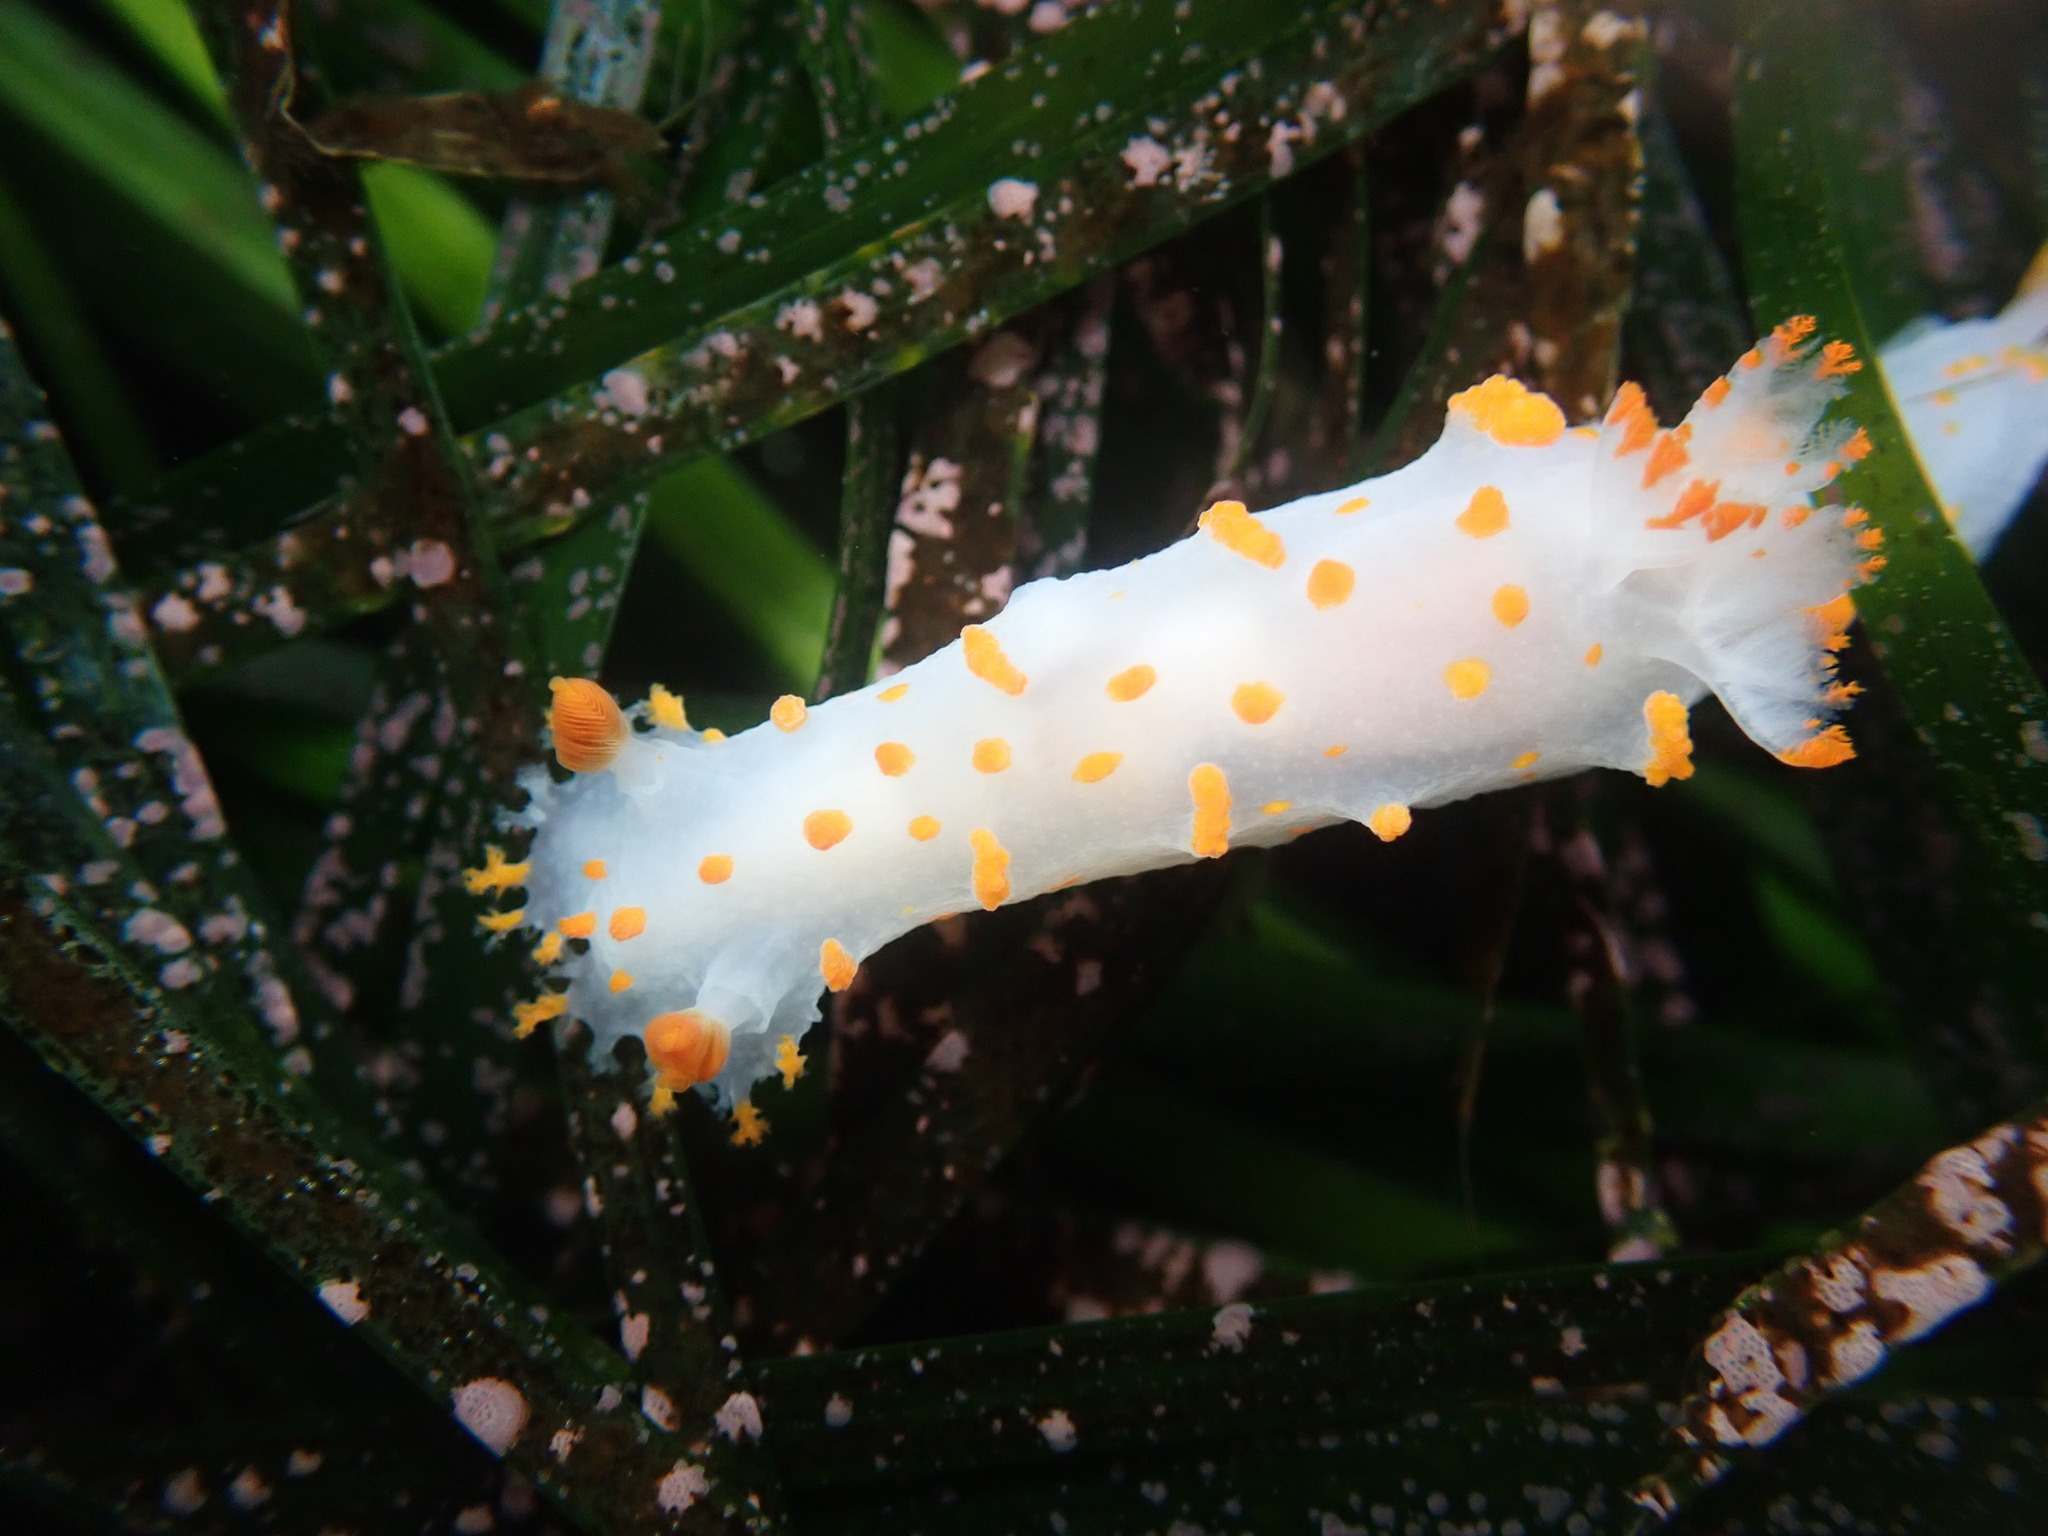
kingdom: Animalia
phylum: Mollusca
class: Gastropoda
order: Nudibranchia
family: Polyceridae
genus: Triopha
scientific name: Triopha catalinae
